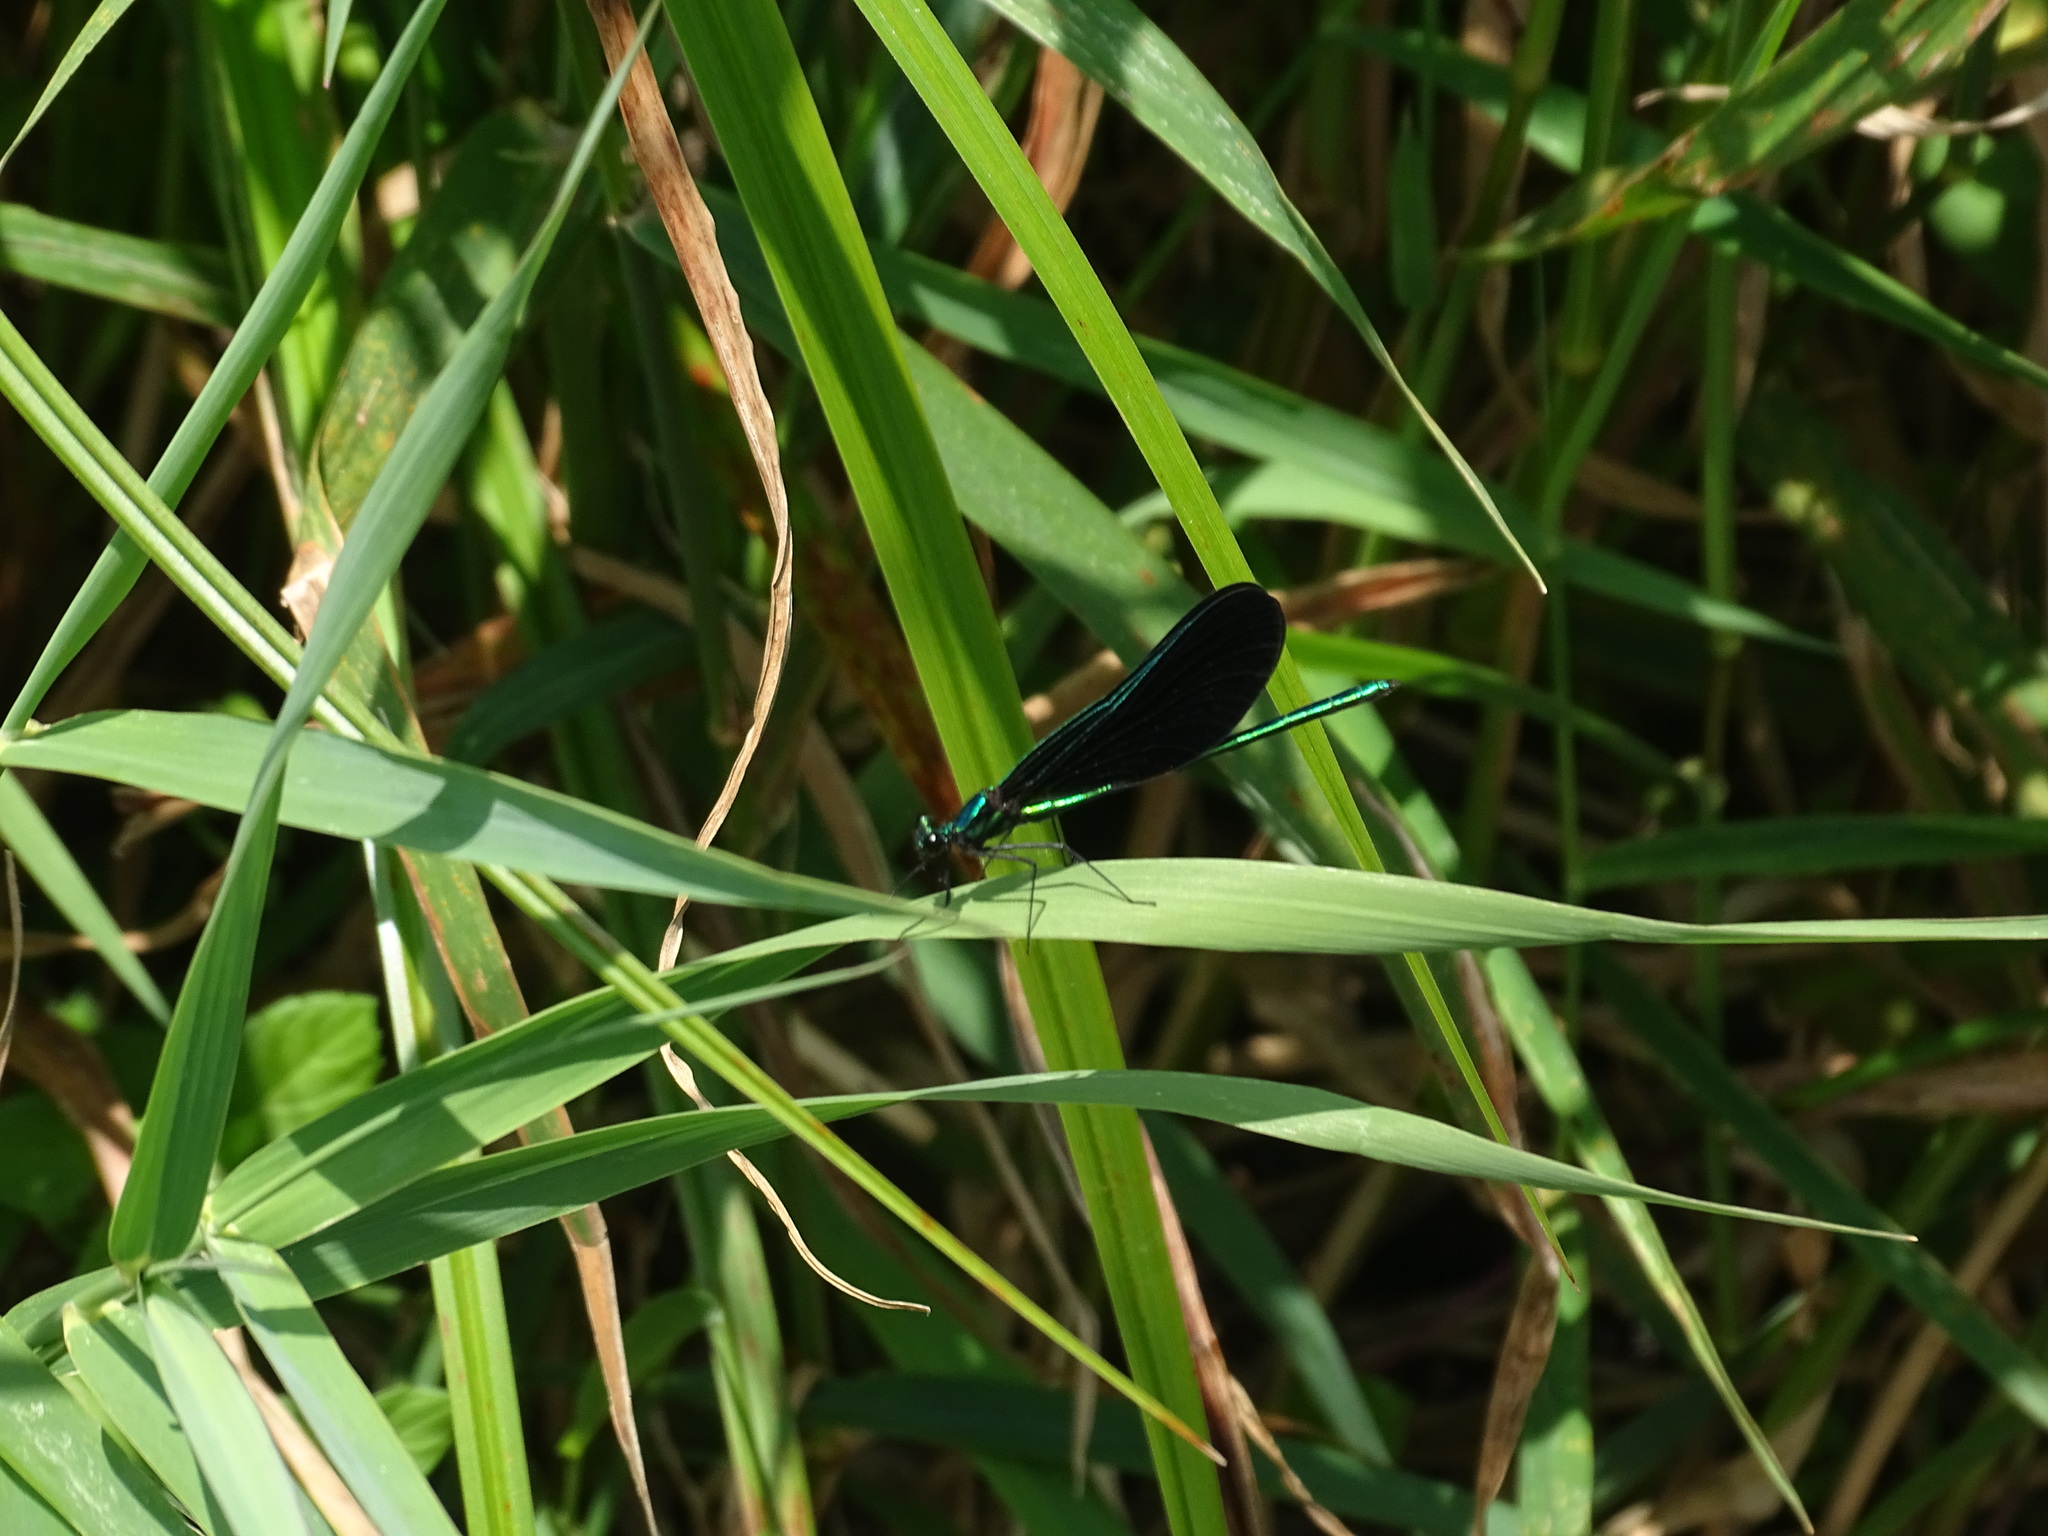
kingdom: Animalia
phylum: Arthropoda
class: Insecta
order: Odonata
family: Calopterygidae
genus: Calopteryx
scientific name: Calopteryx maculata
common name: Ebony jewelwing
